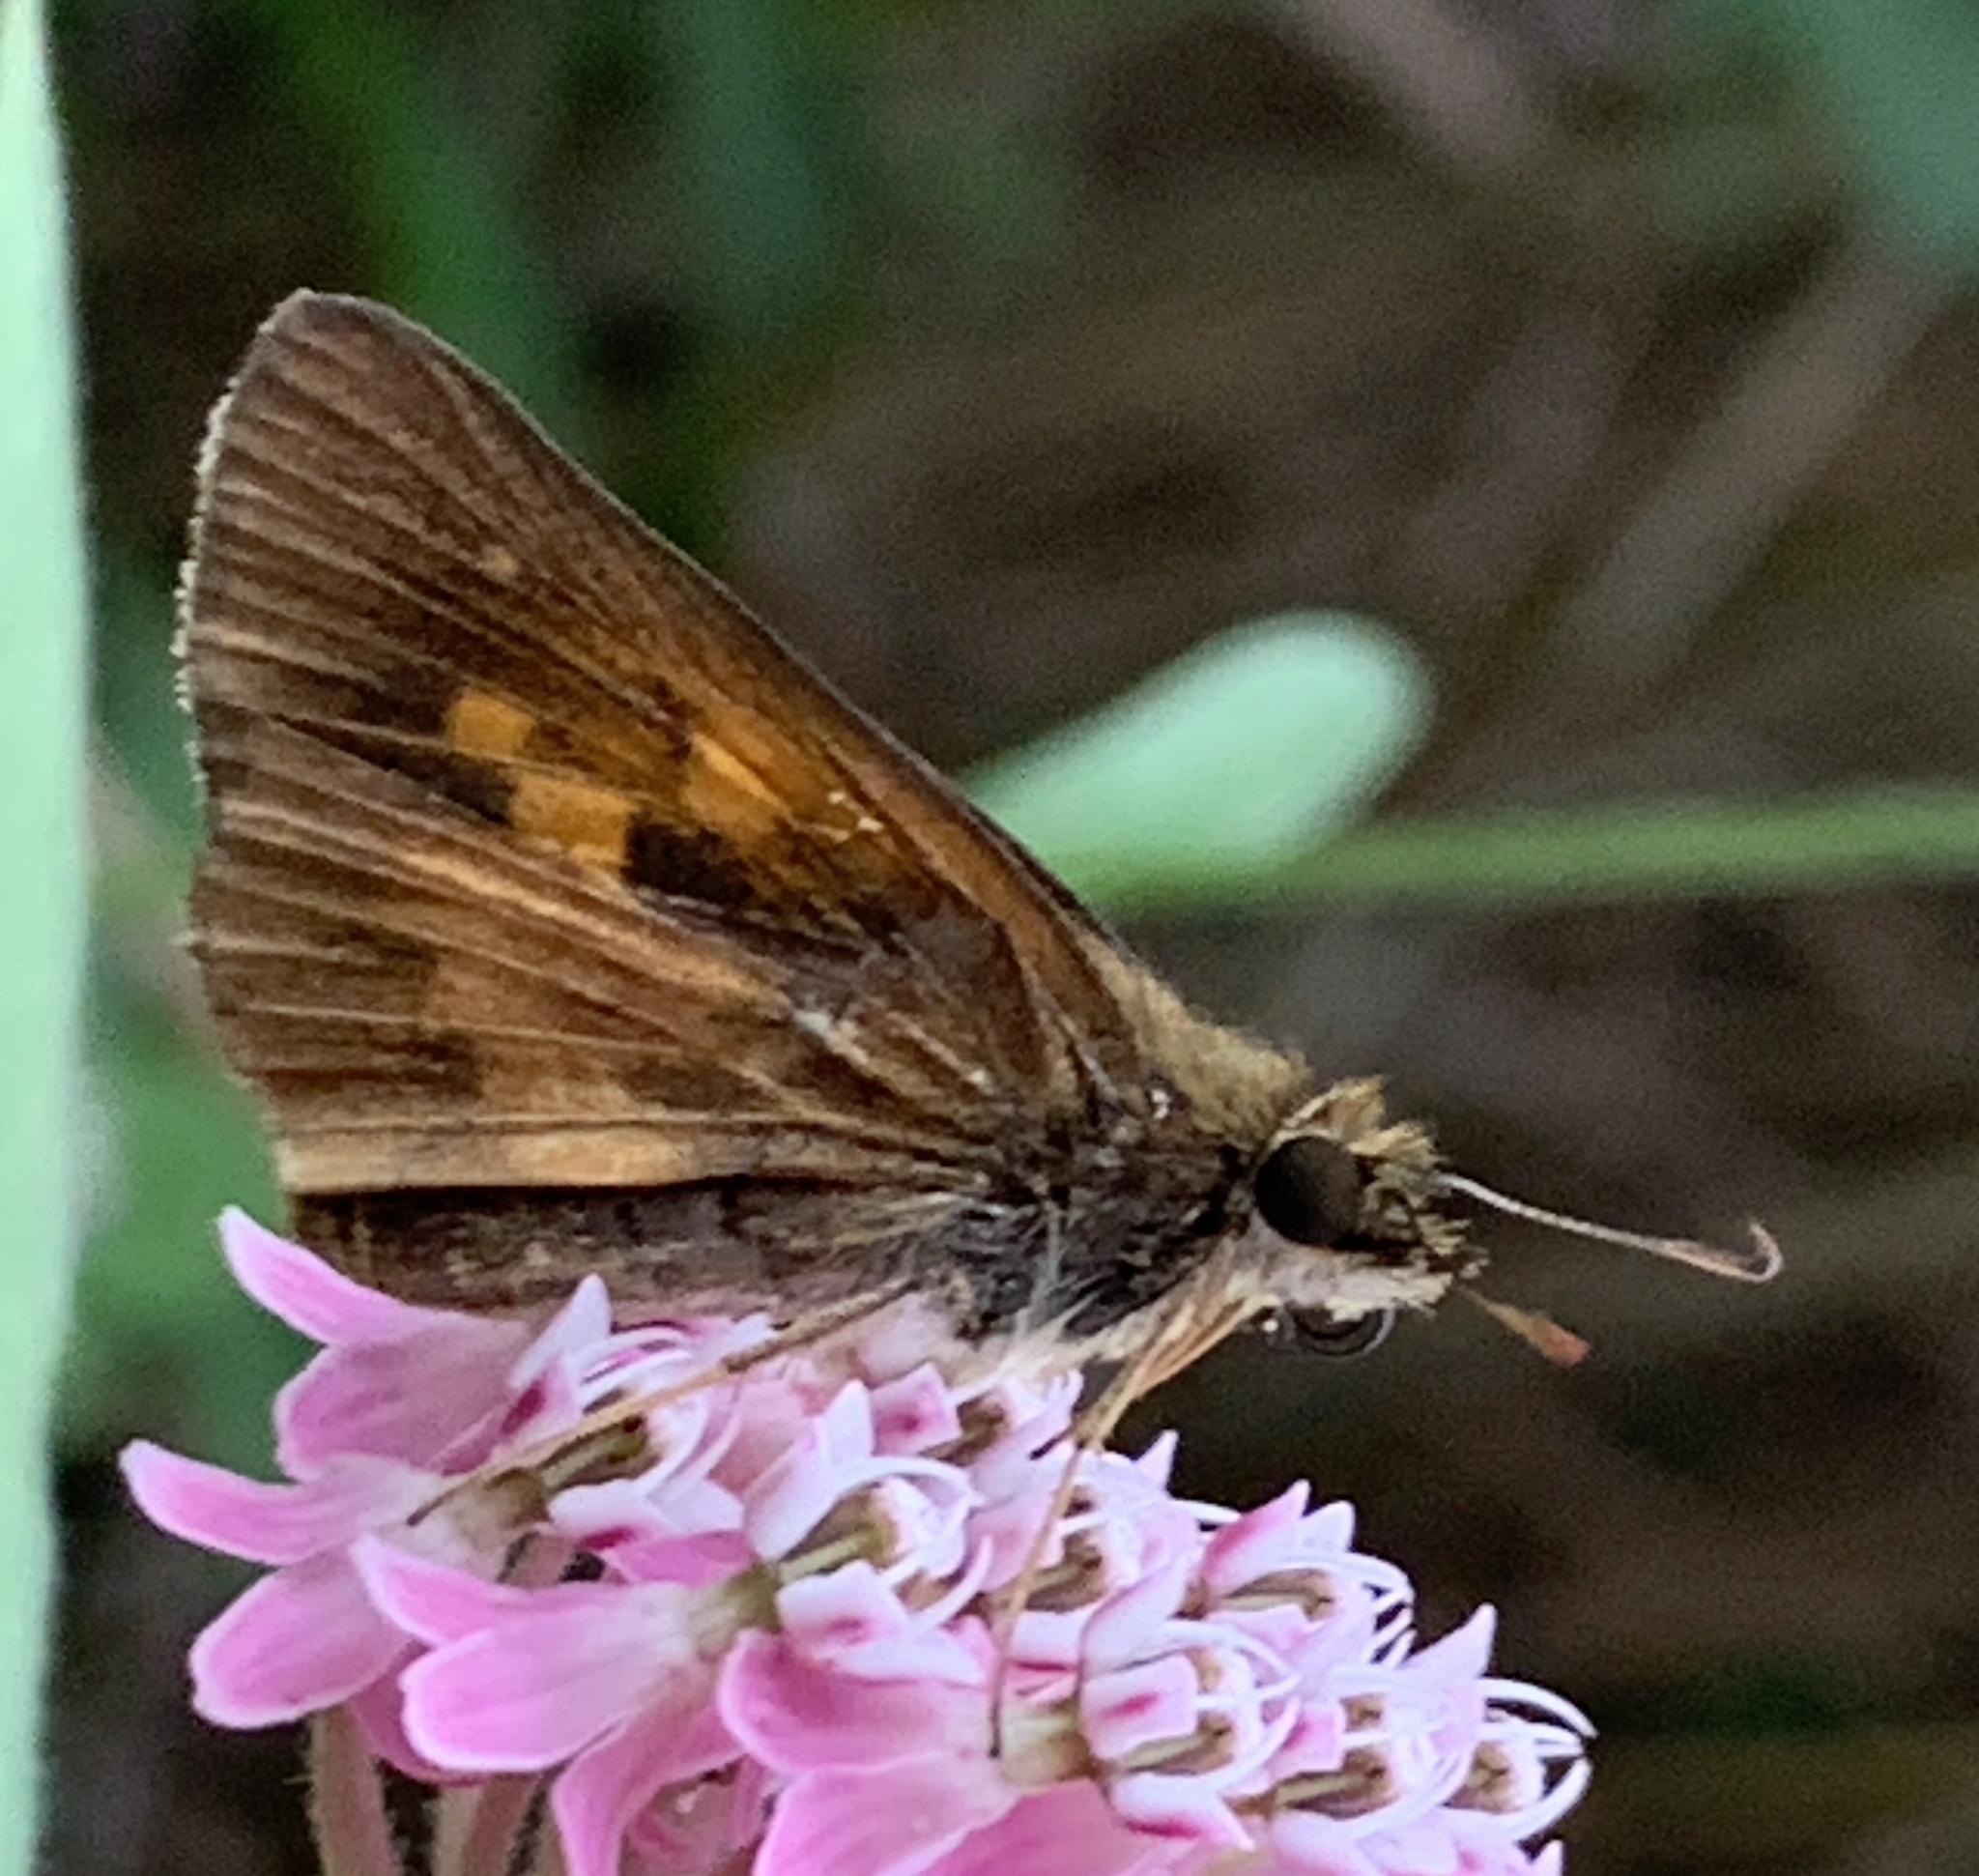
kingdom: Animalia
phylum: Arthropoda
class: Insecta
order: Lepidoptera
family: Hesperiidae
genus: Poanes
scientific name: Poanes viator
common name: Broad-winged skipper
